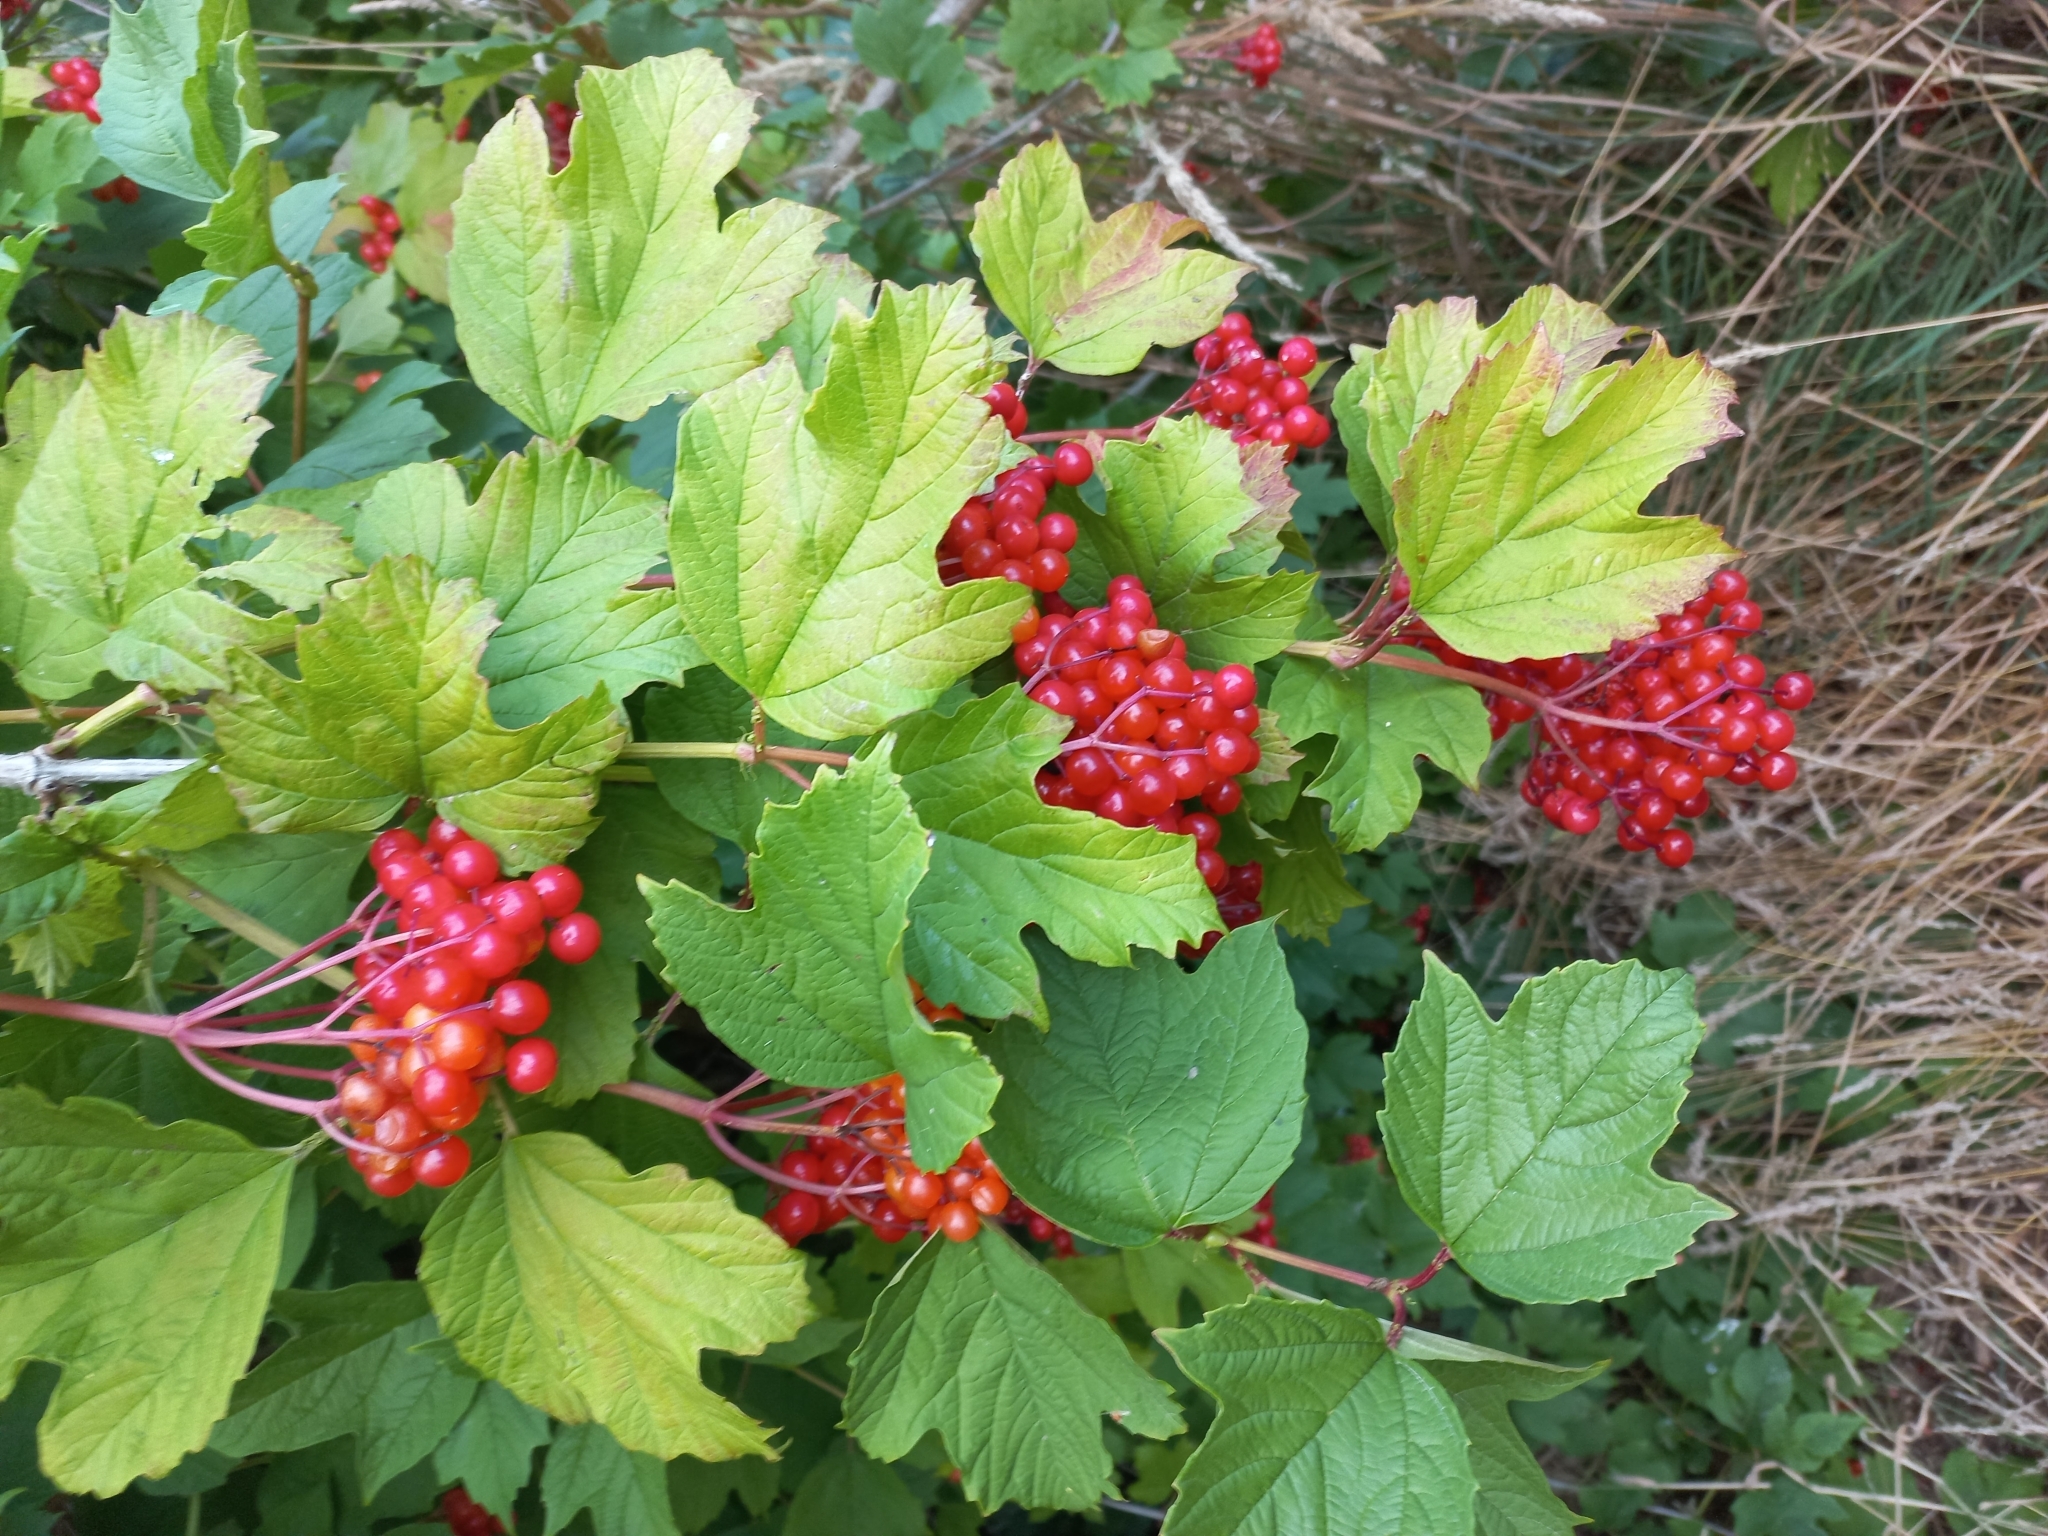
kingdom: Plantae
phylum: Tracheophyta
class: Magnoliopsida
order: Dipsacales
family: Viburnaceae
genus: Viburnum
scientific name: Viburnum opulus
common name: Guelder-rose
